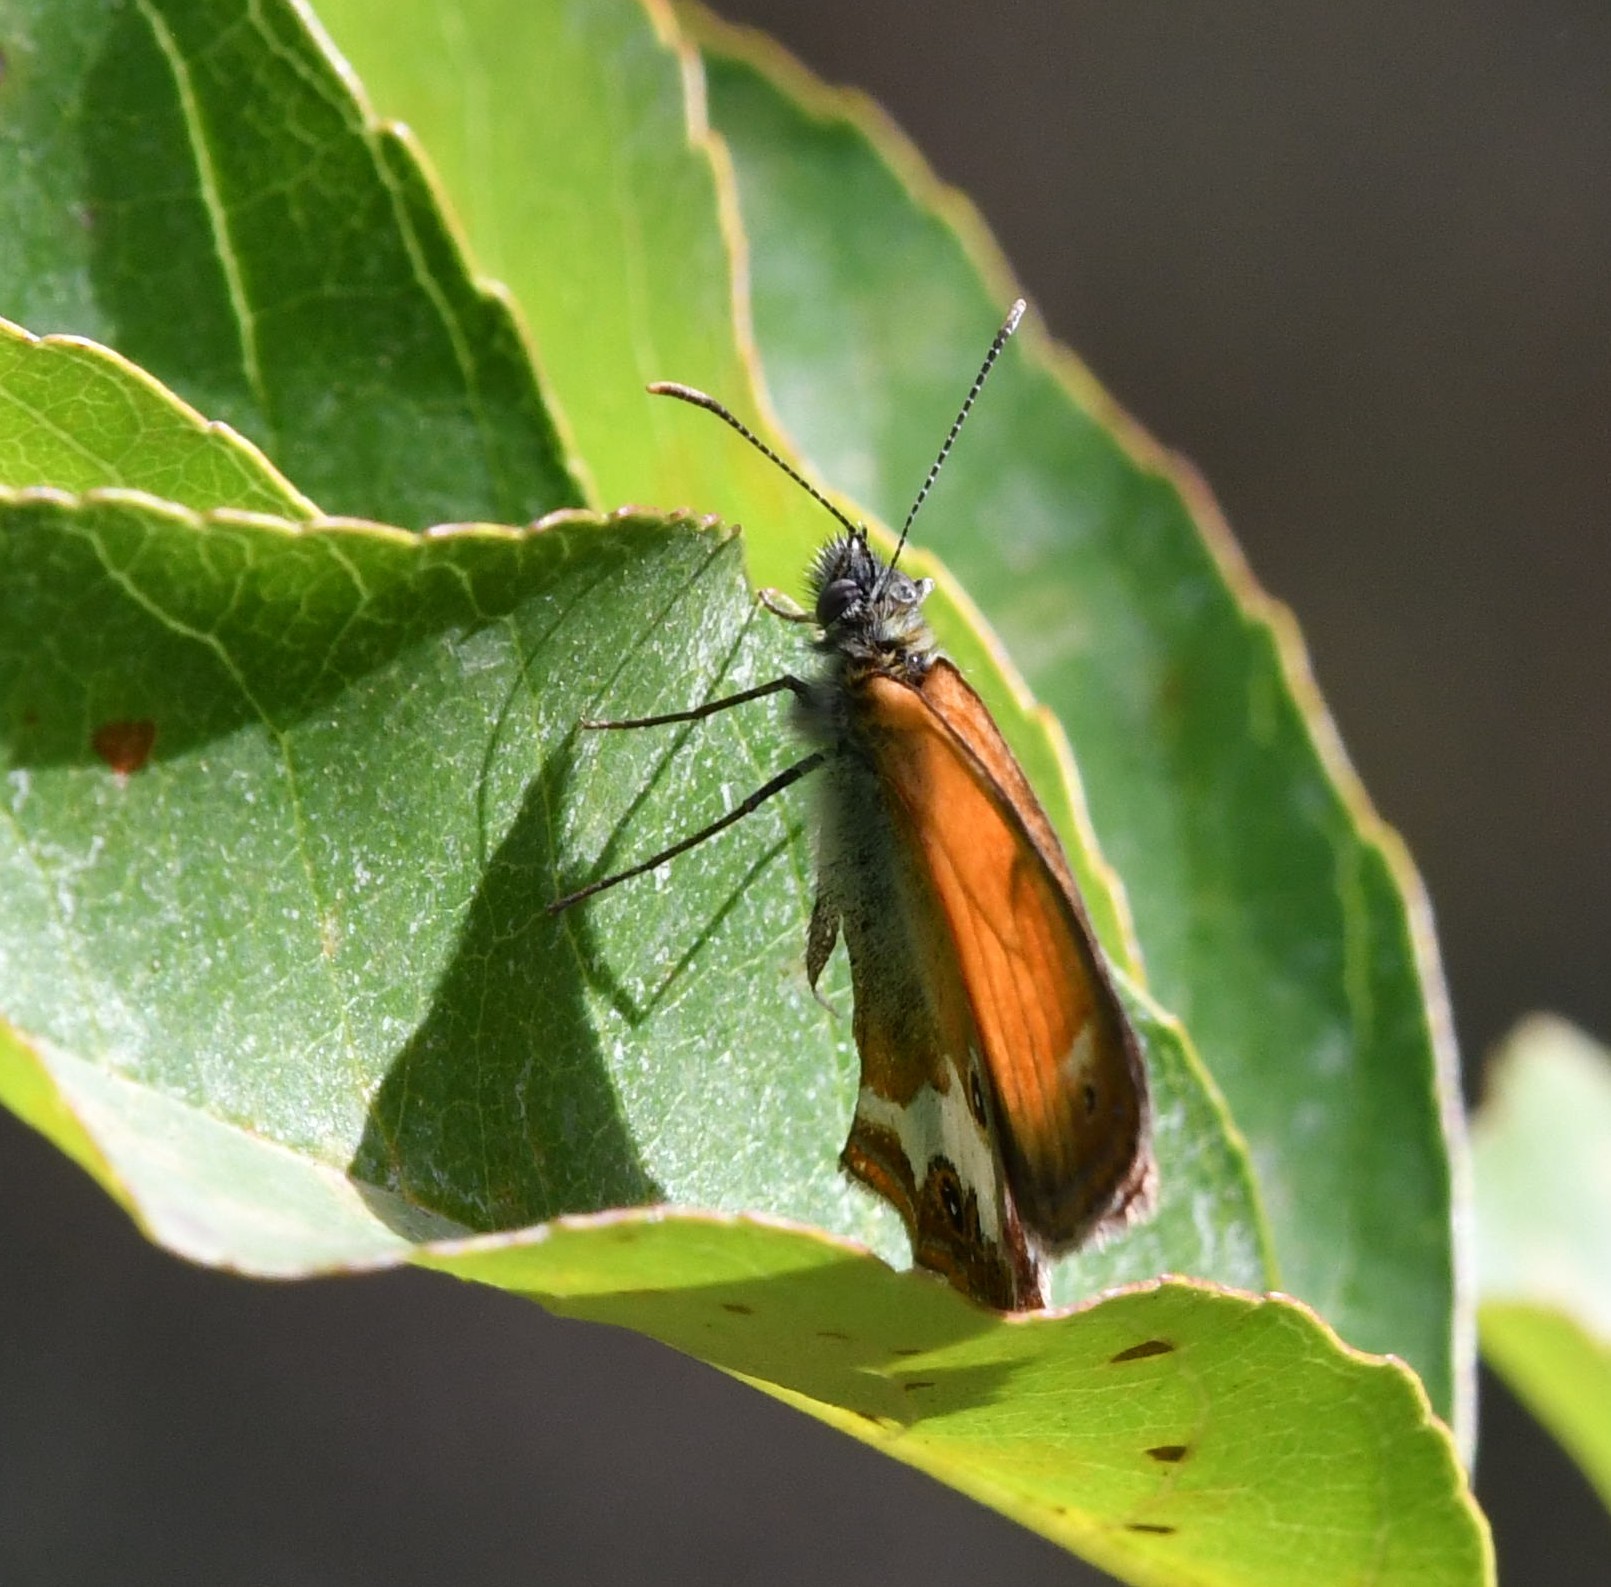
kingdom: Animalia
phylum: Arthropoda
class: Insecta
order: Lepidoptera
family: Nymphalidae
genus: Coenonympha
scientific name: Coenonympha arcania
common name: Pearly heath
